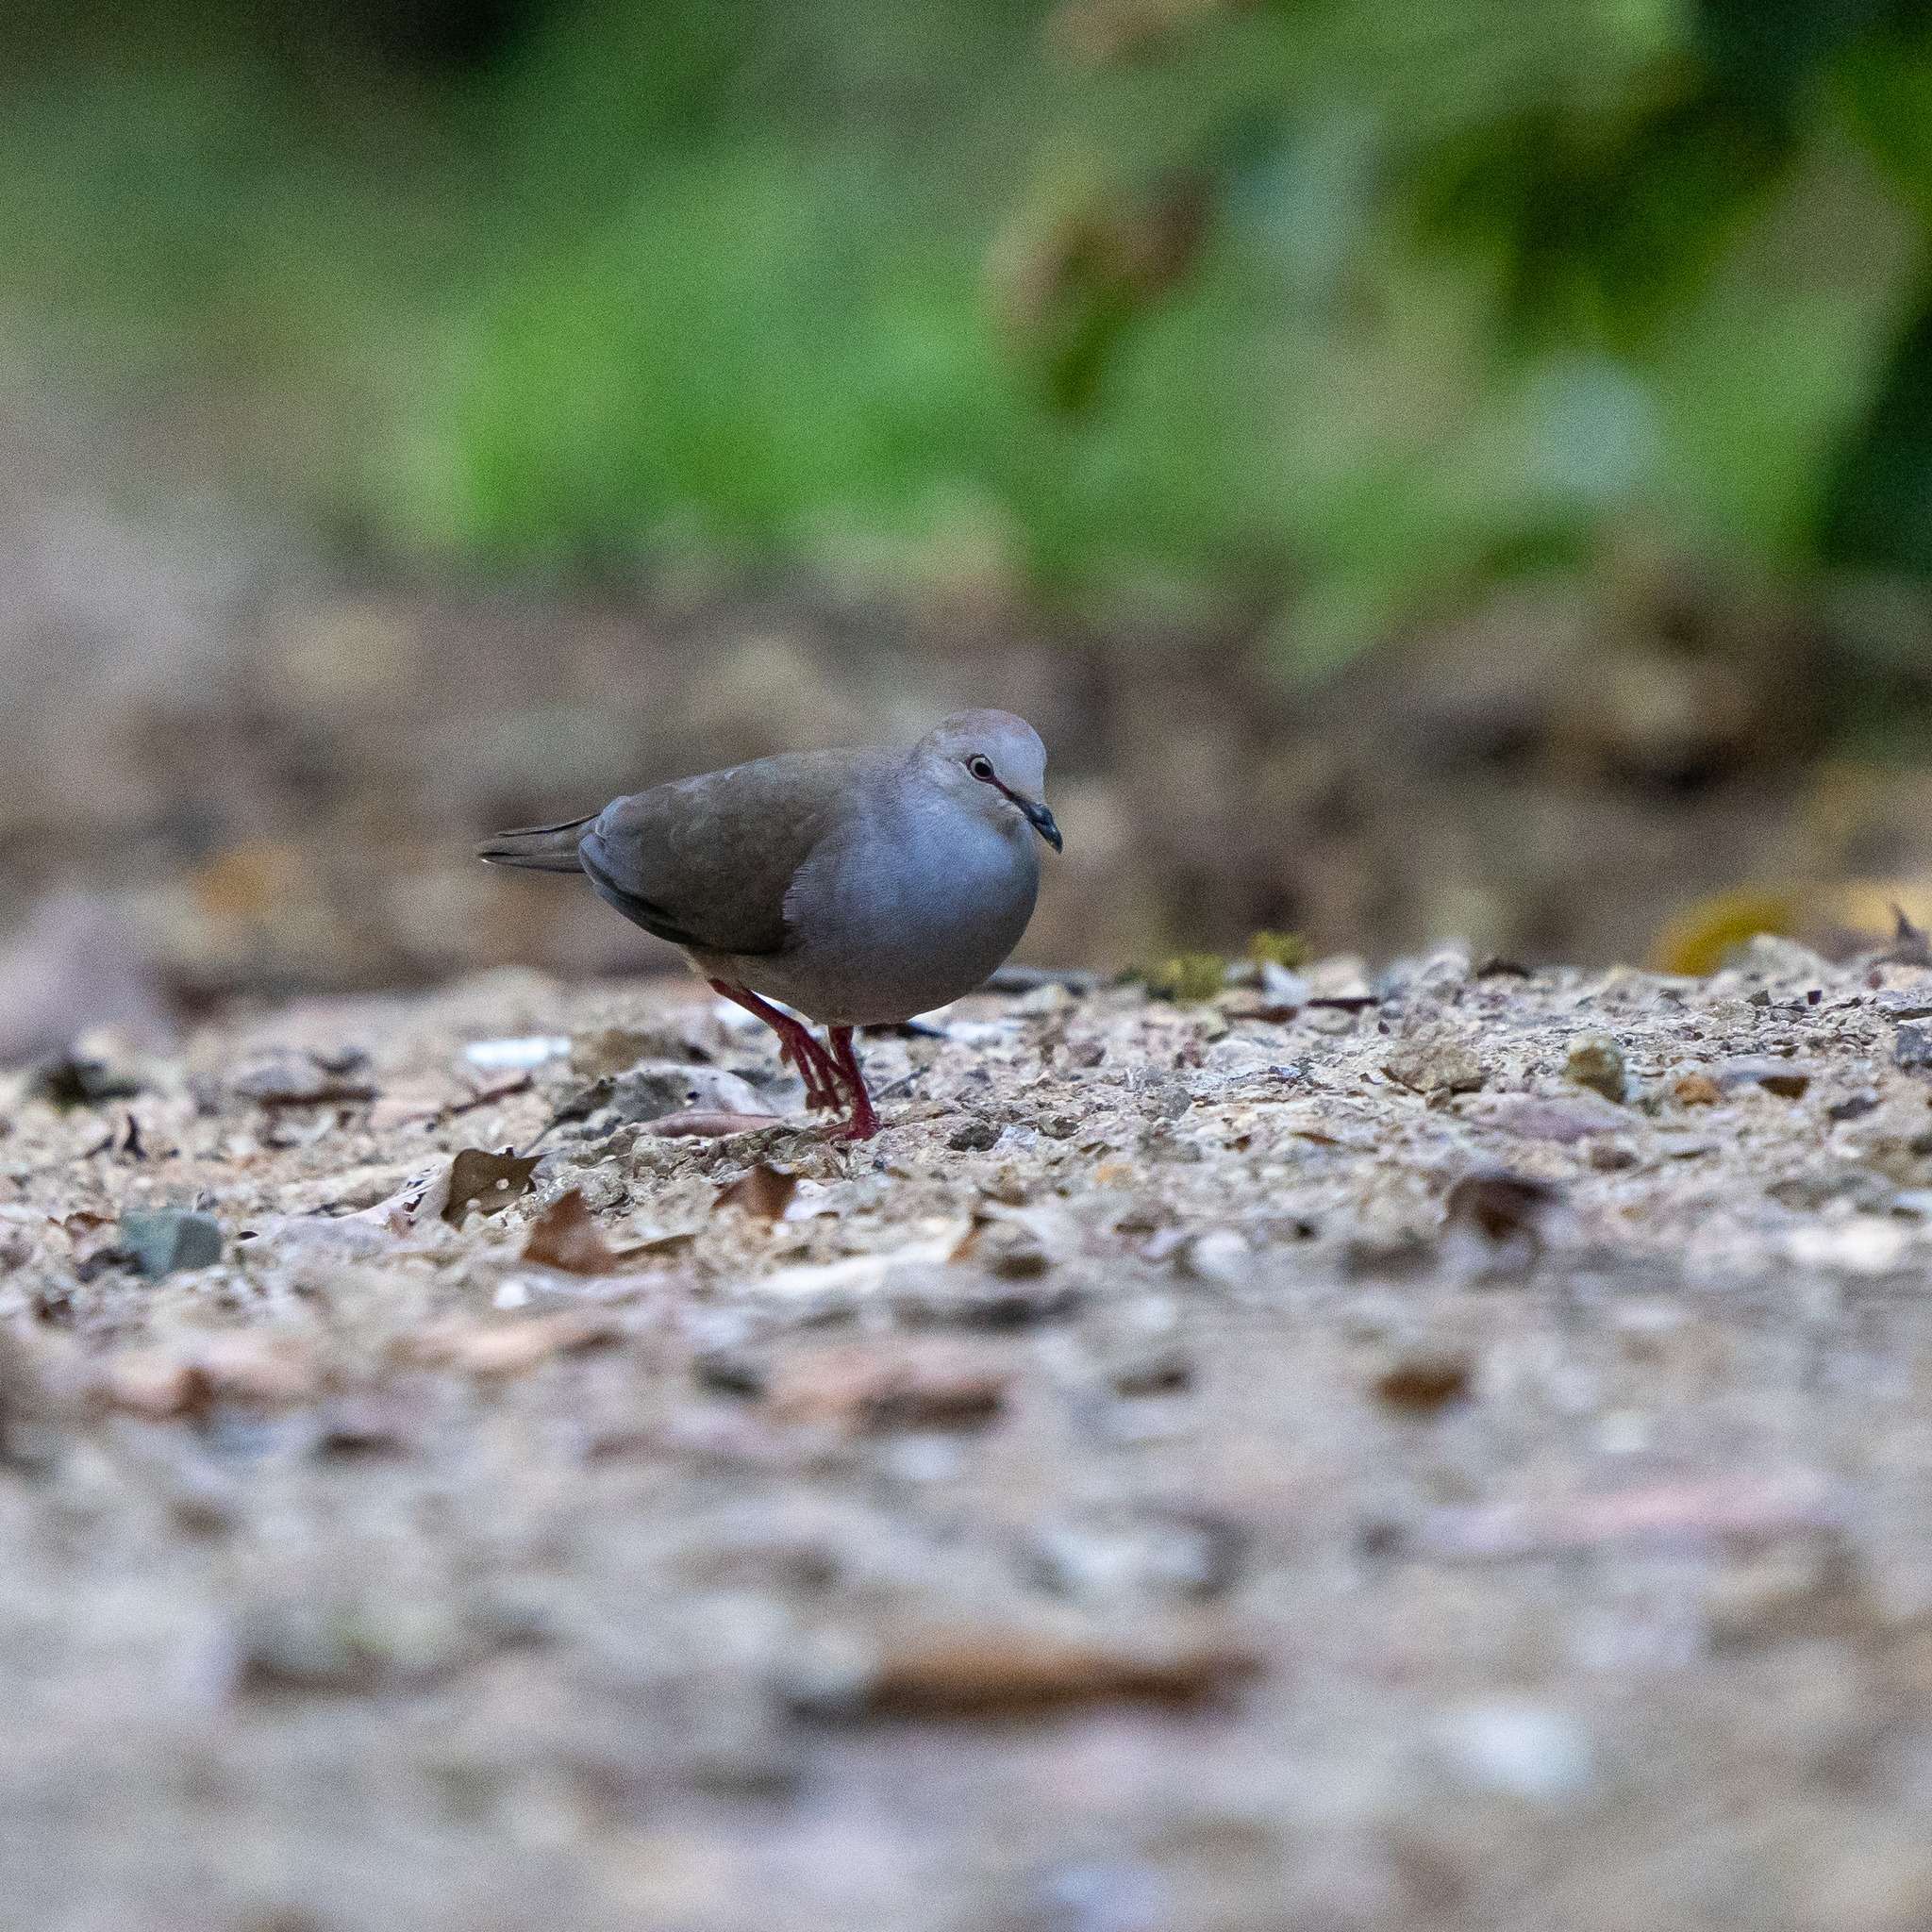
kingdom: Animalia
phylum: Chordata
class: Aves
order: Columbiformes
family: Columbidae
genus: Leptotila
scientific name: Leptotila cassinii
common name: Grey-chested dove
